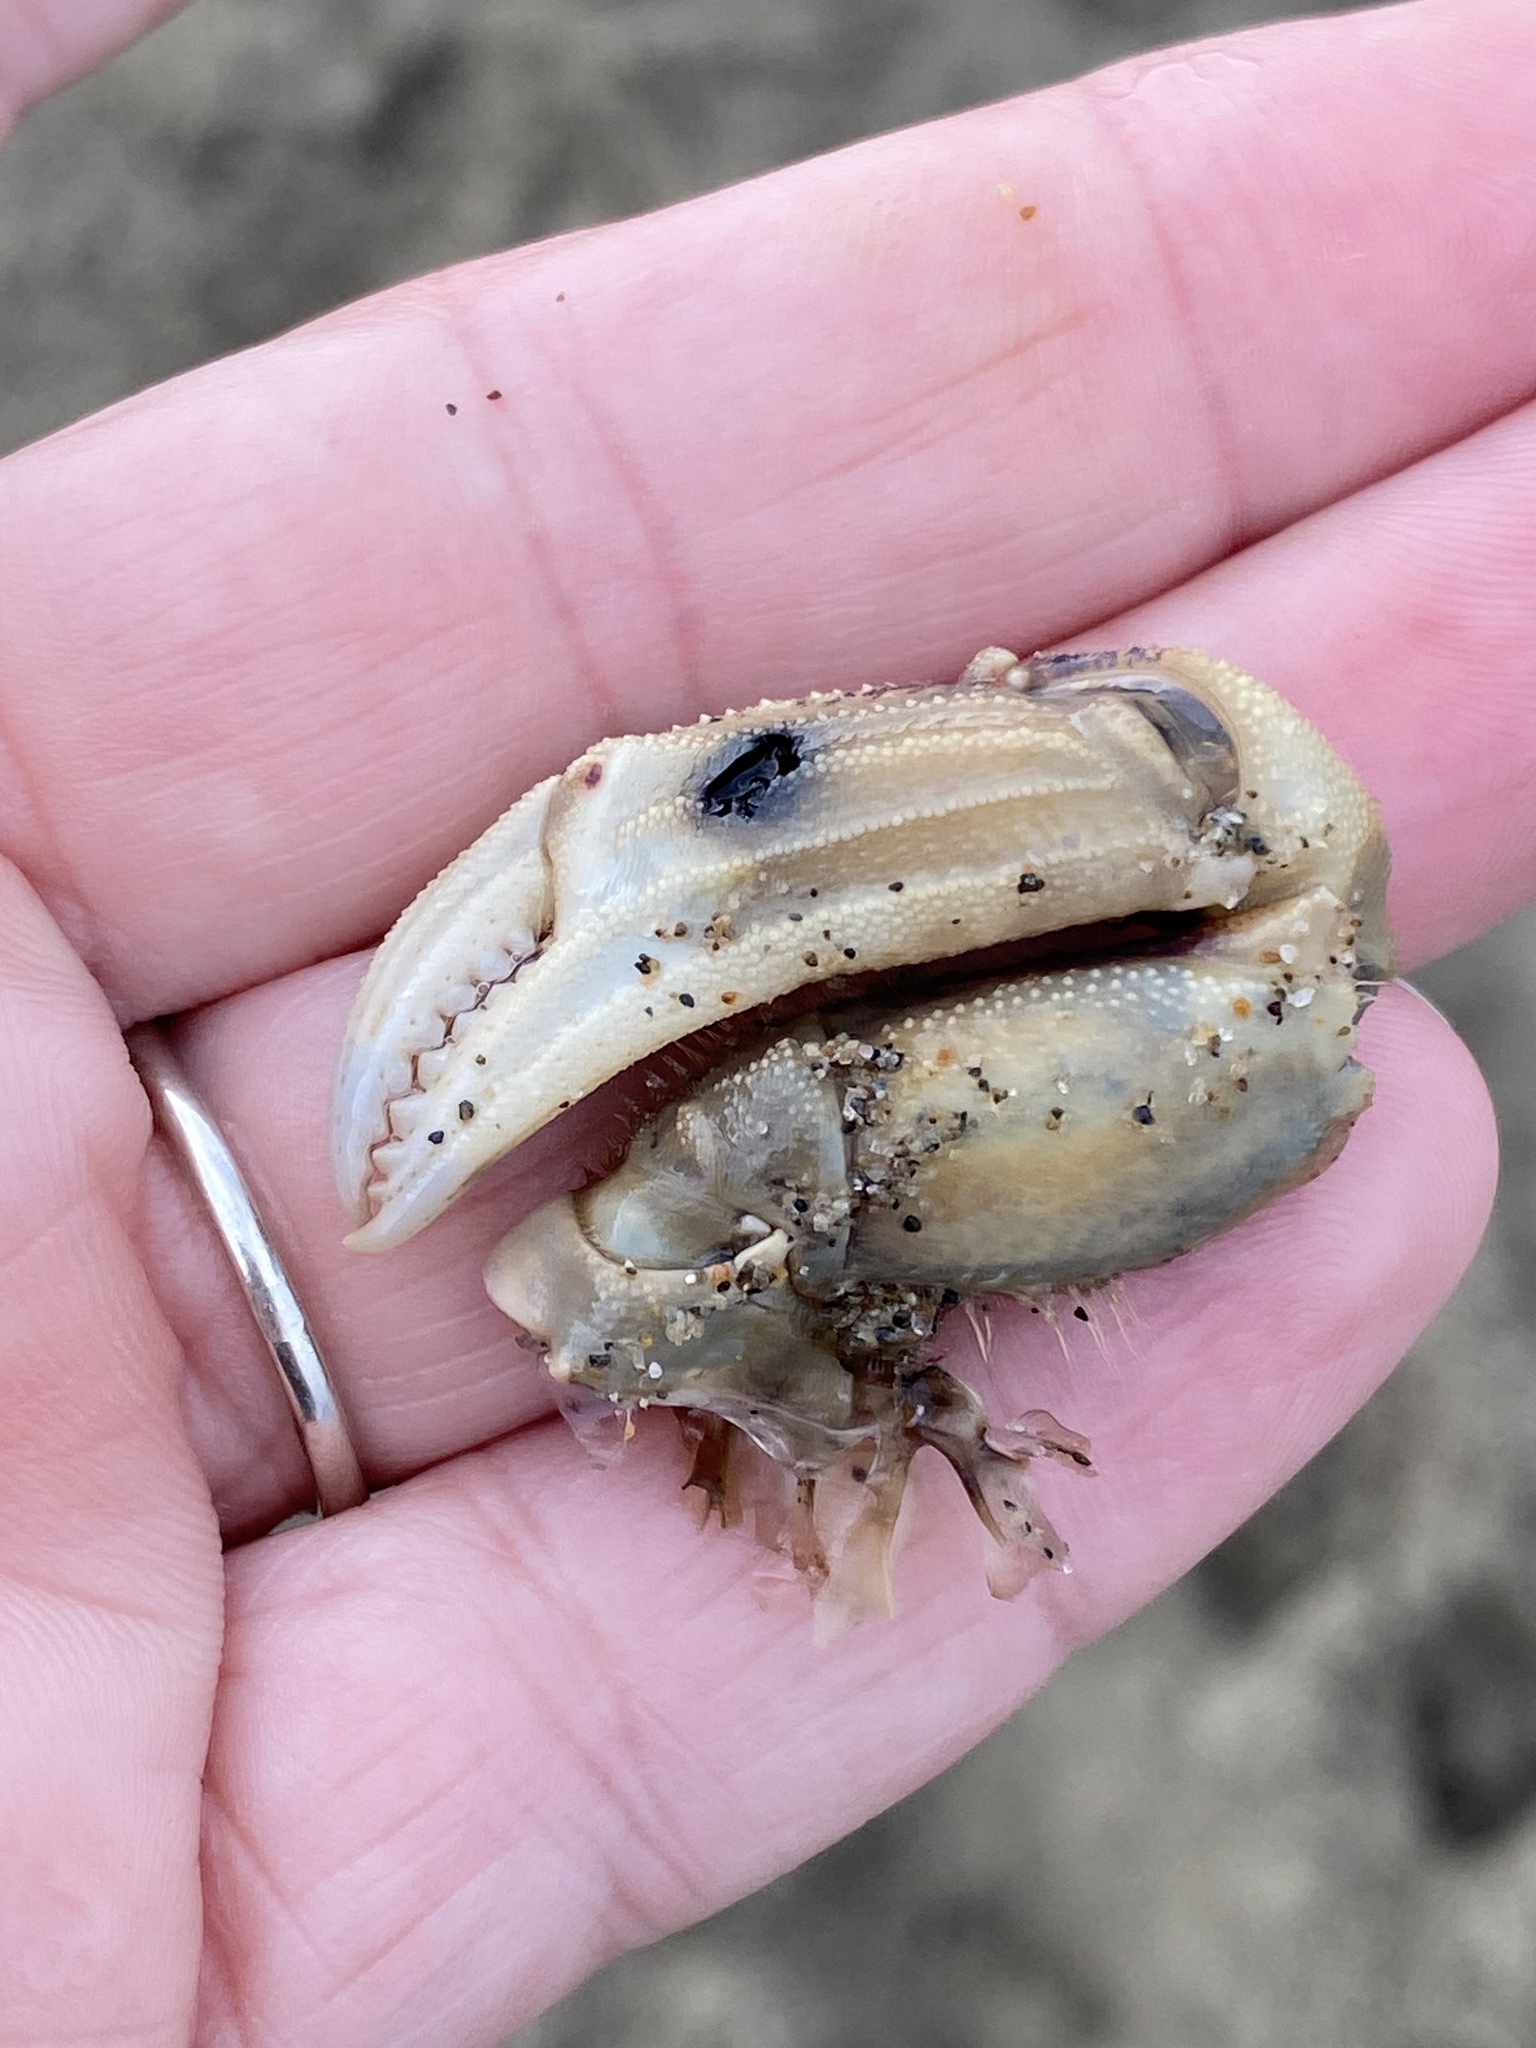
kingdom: Animalia
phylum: Arthropoda
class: Malacostraca
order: Decapoda
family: Cancridae
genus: Metacarcinus
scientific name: Metacarcinus magister
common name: Californian crab
